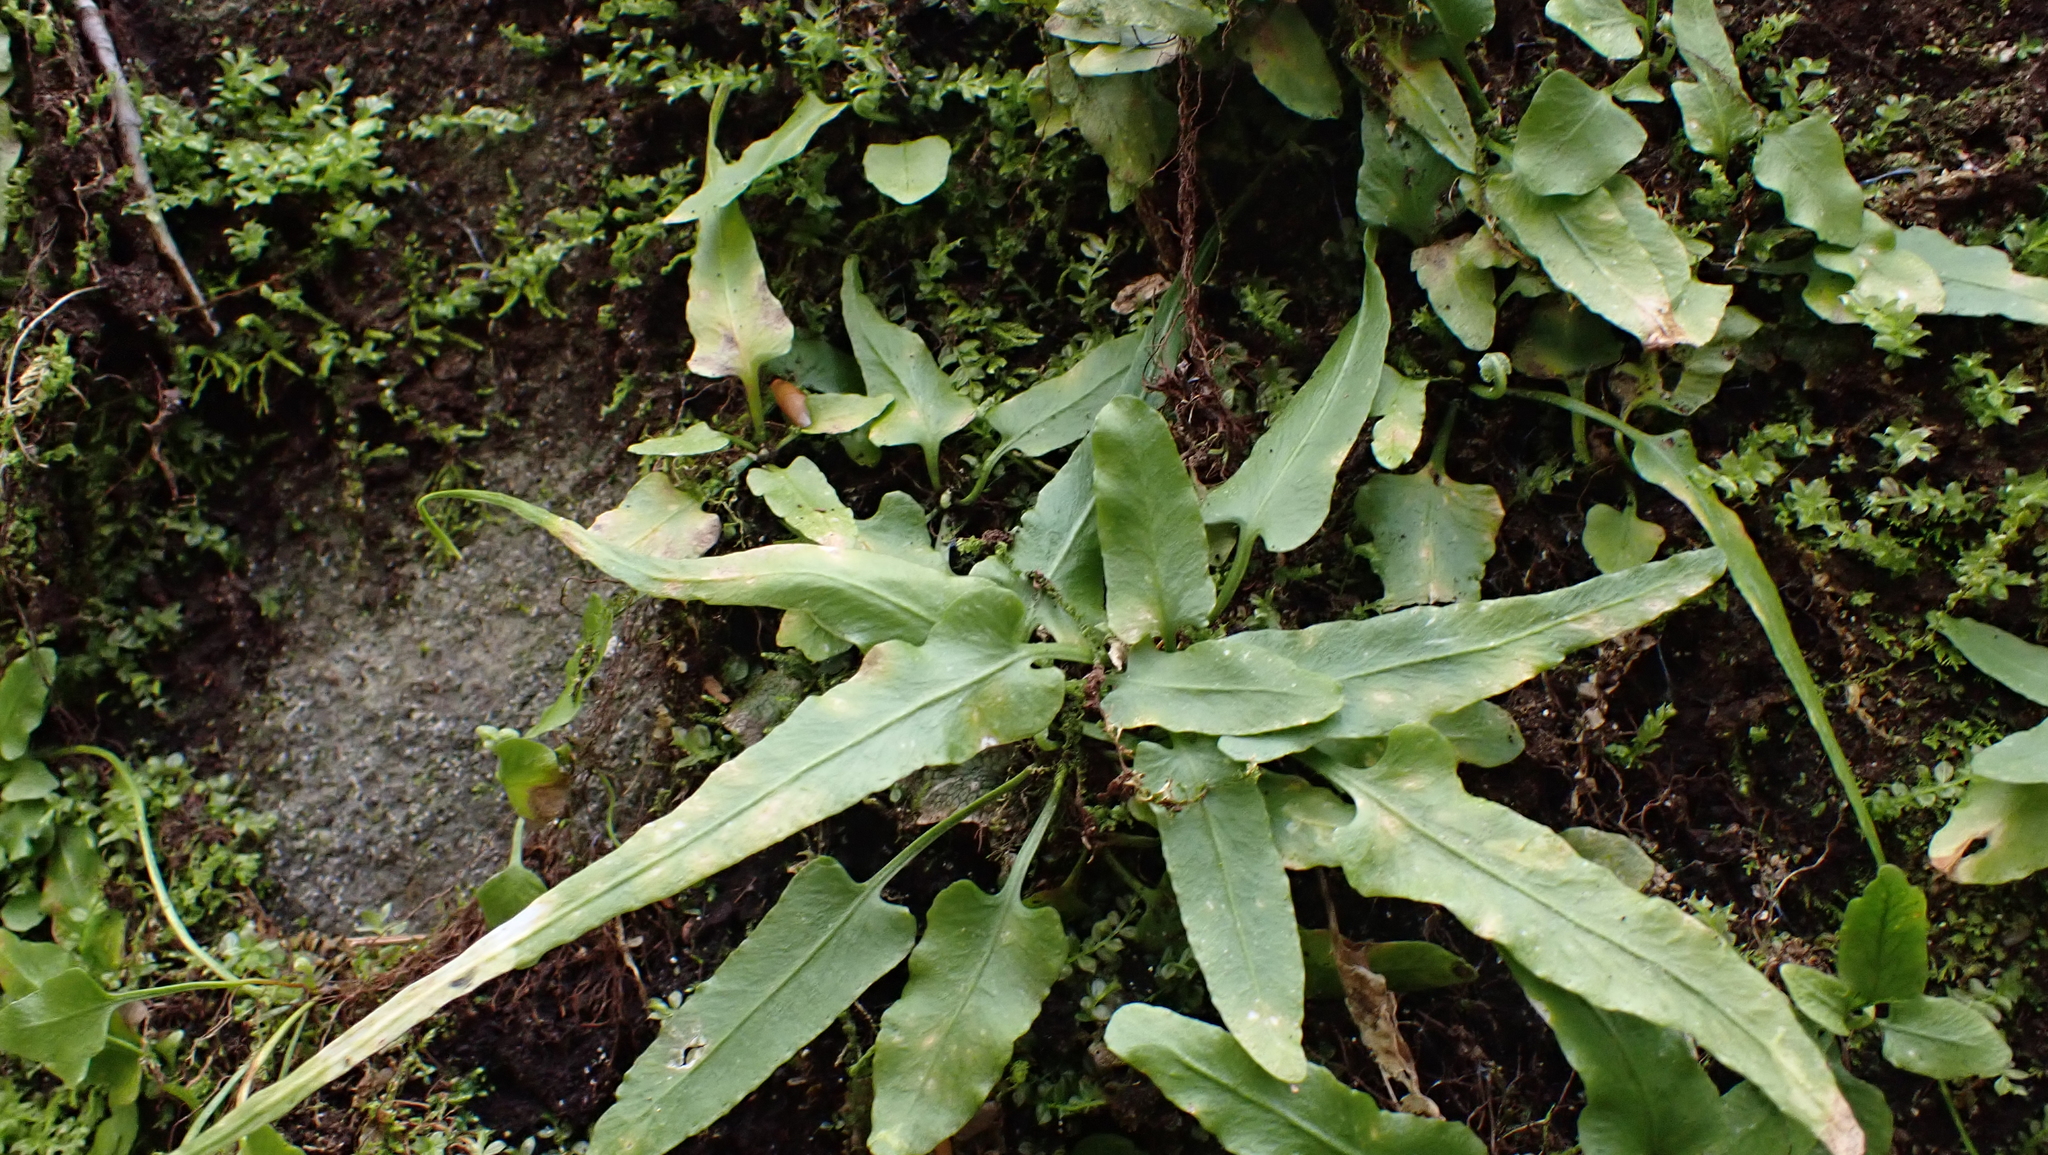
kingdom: Plantae
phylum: Tracheophyta
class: Polypodiopsida
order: Polypodiales
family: Aspleniaceae
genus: Asplenium
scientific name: Asplenium rhizophyllum
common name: Walking fern
